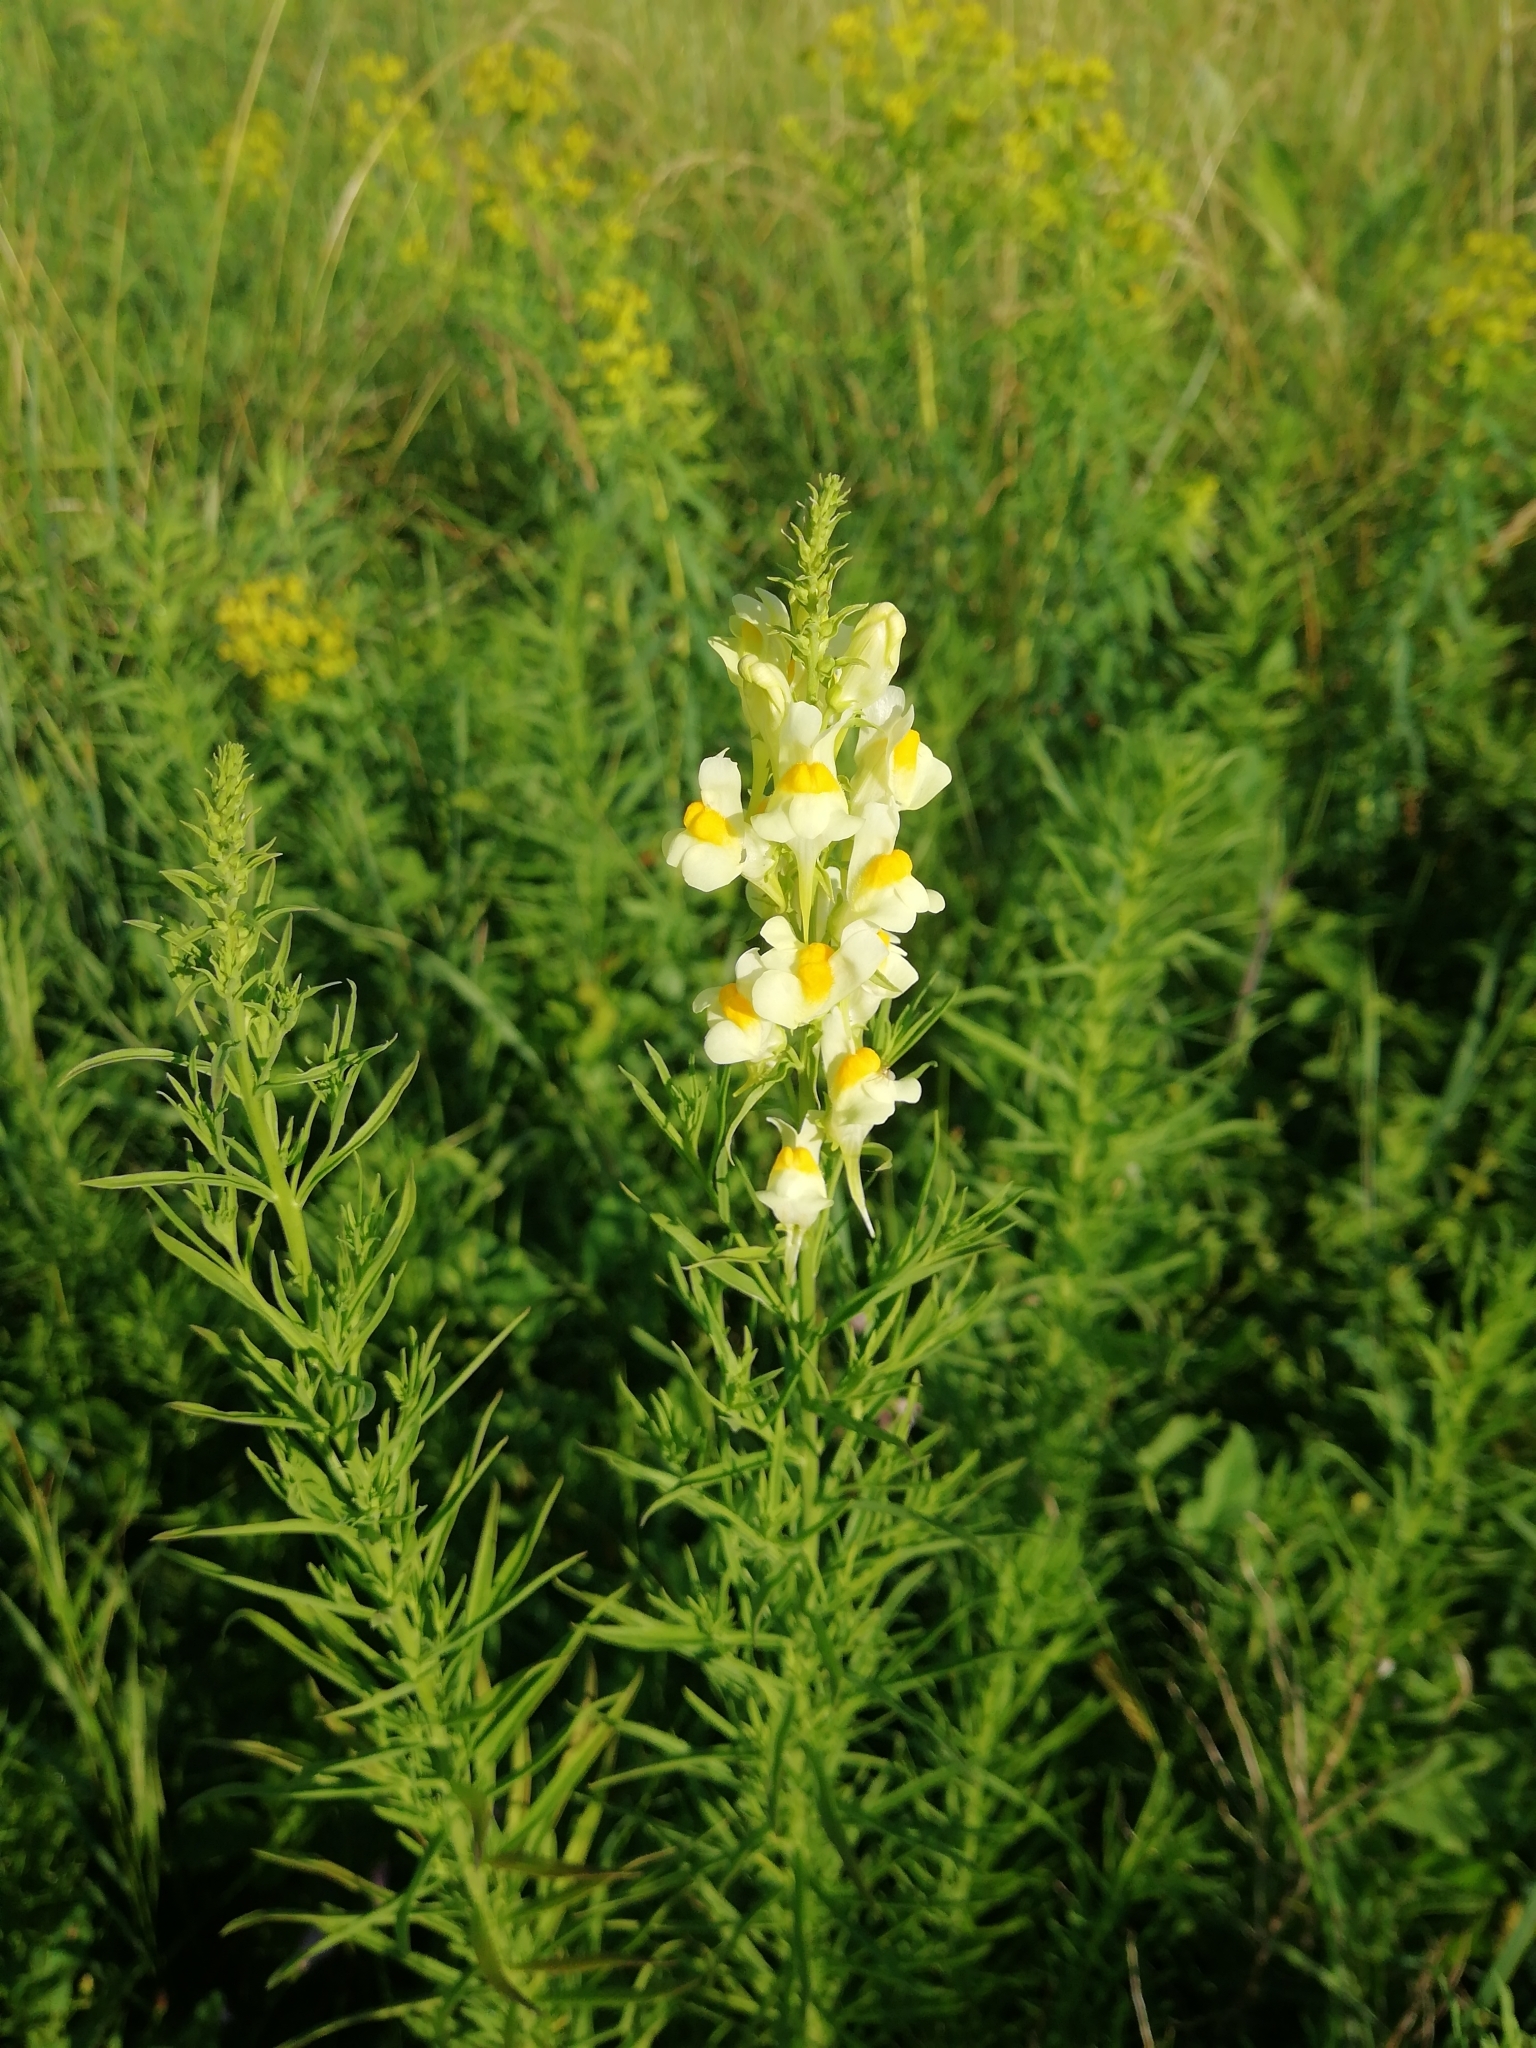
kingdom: Plantae
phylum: Tracheophyta
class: Magnoliopsida
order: Lamiales
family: Plantaginaceae
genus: Linaria
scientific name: Linaria biebersteinii
